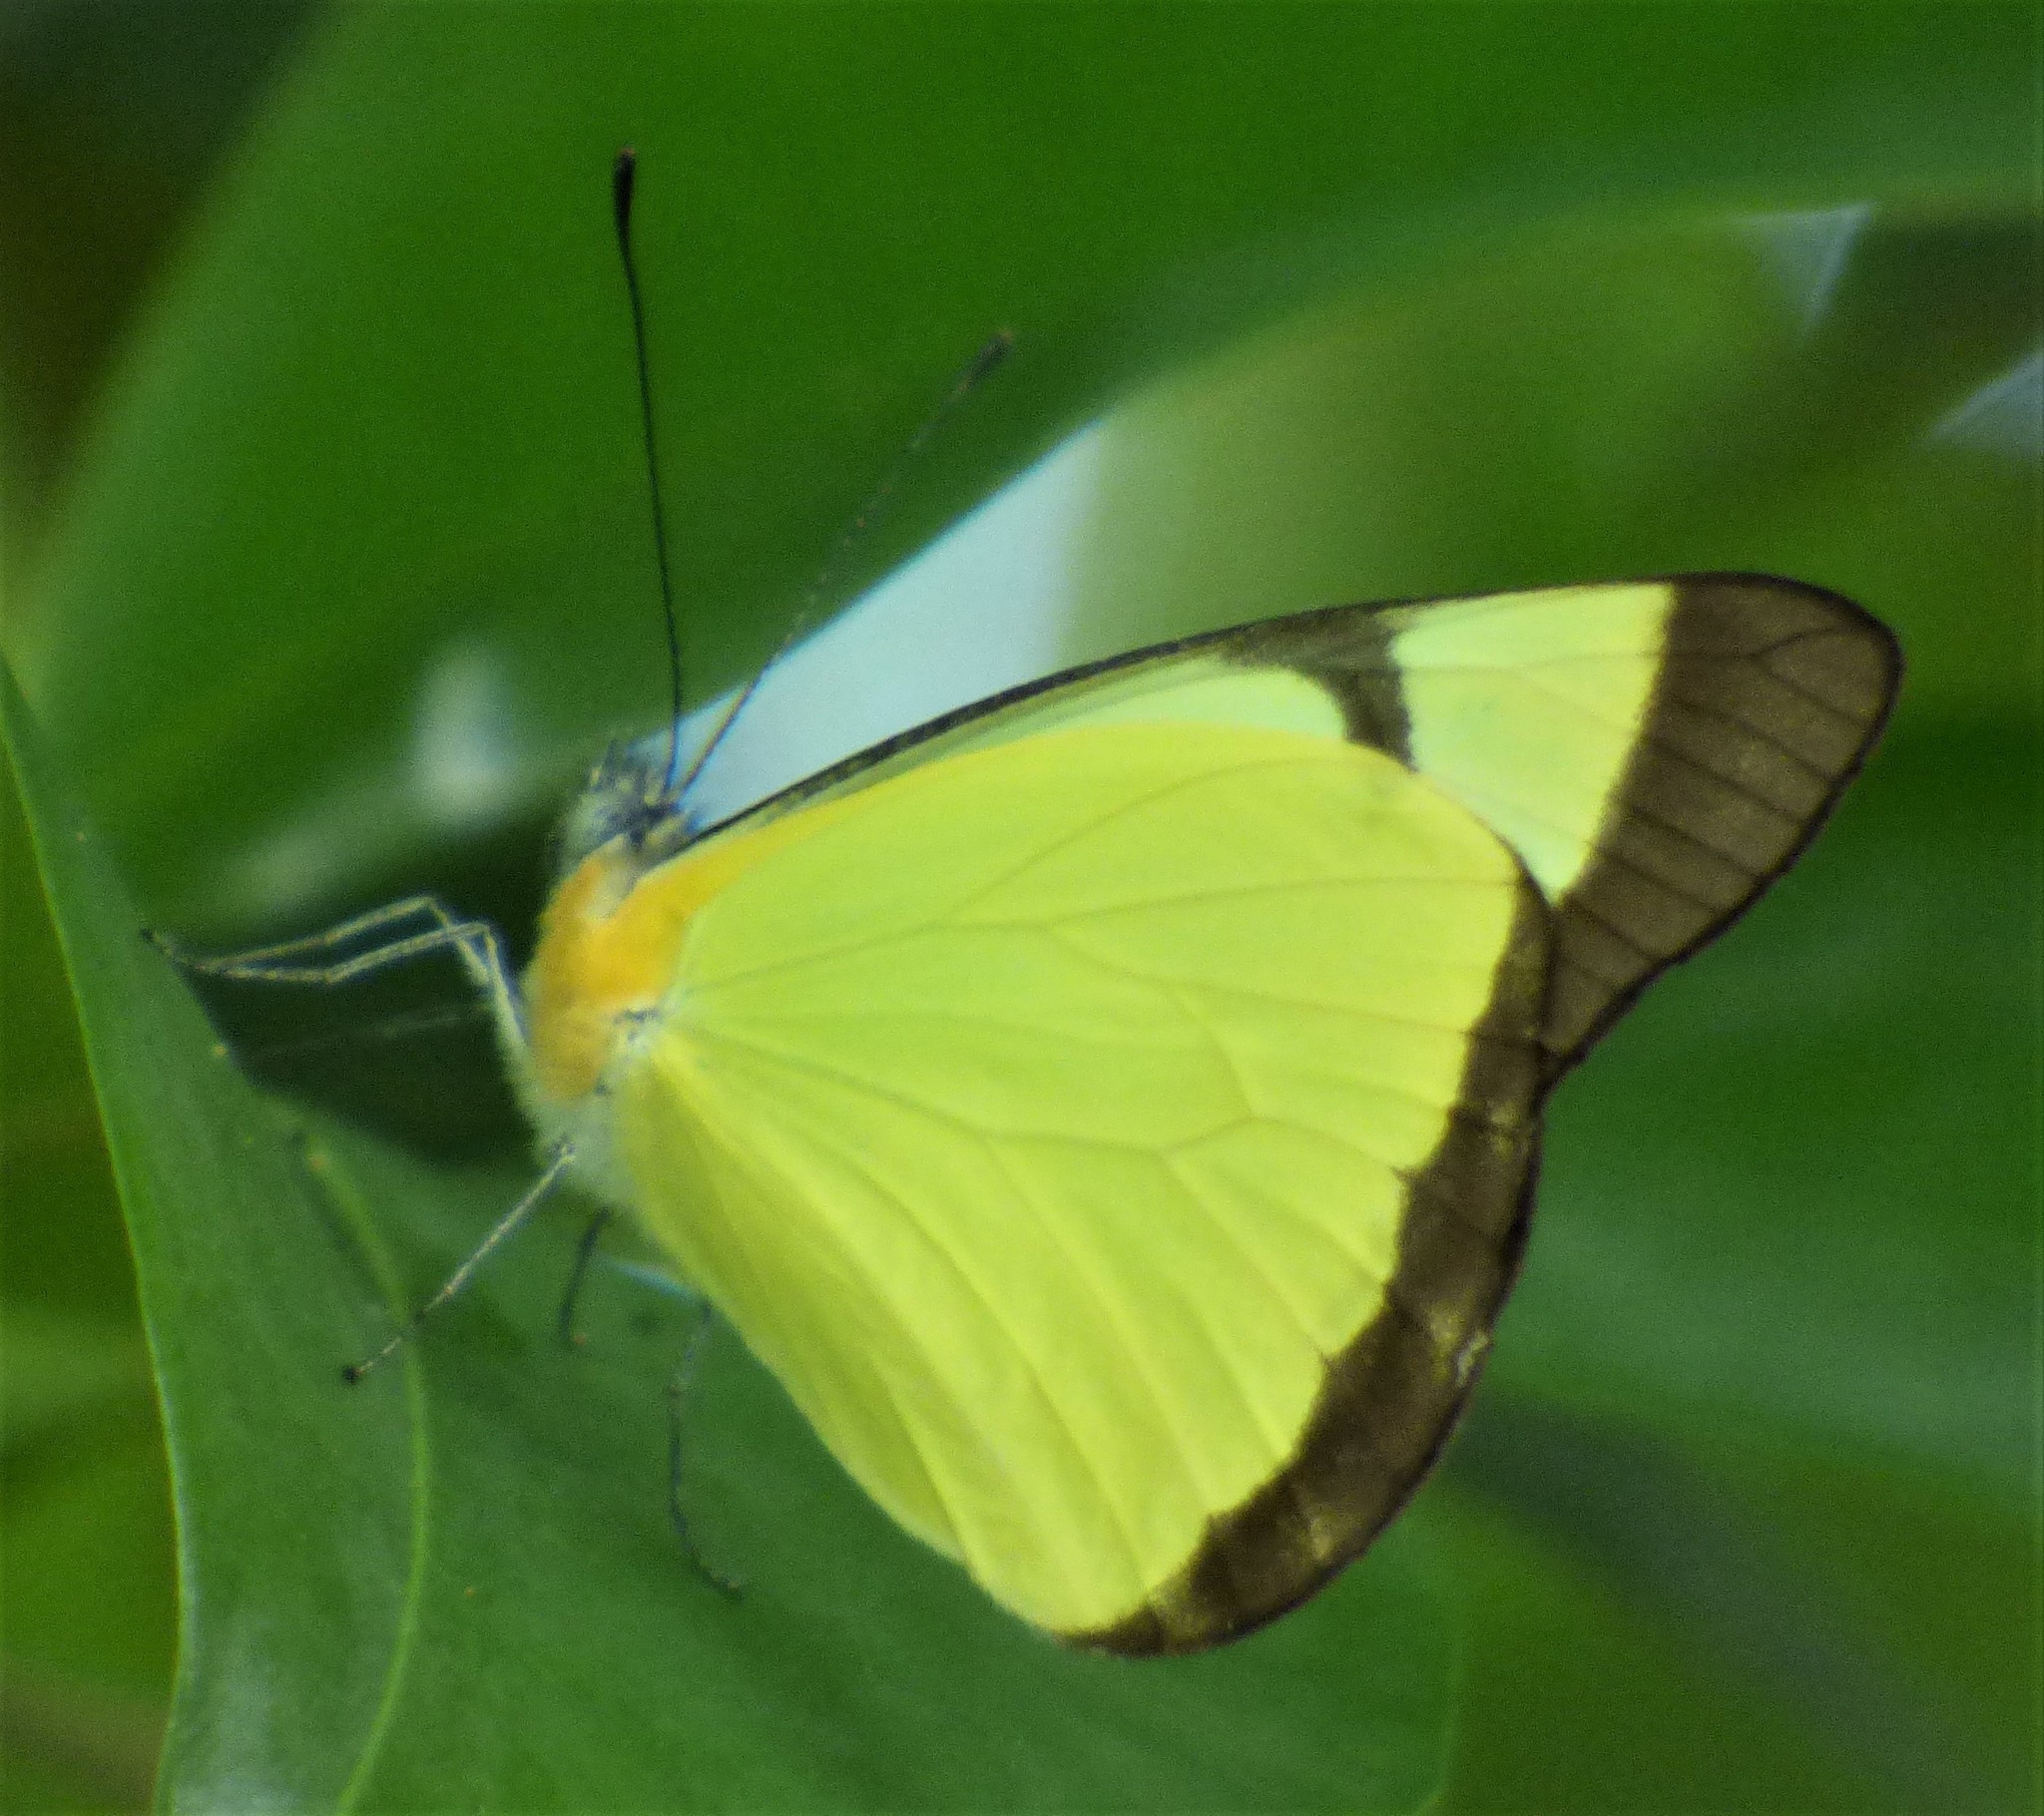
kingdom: Animalia
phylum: Arthropoda
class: Insecta
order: Lepidoptera
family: Pieridae
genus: Melete
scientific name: Melete lycimnia
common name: Common melwhite
